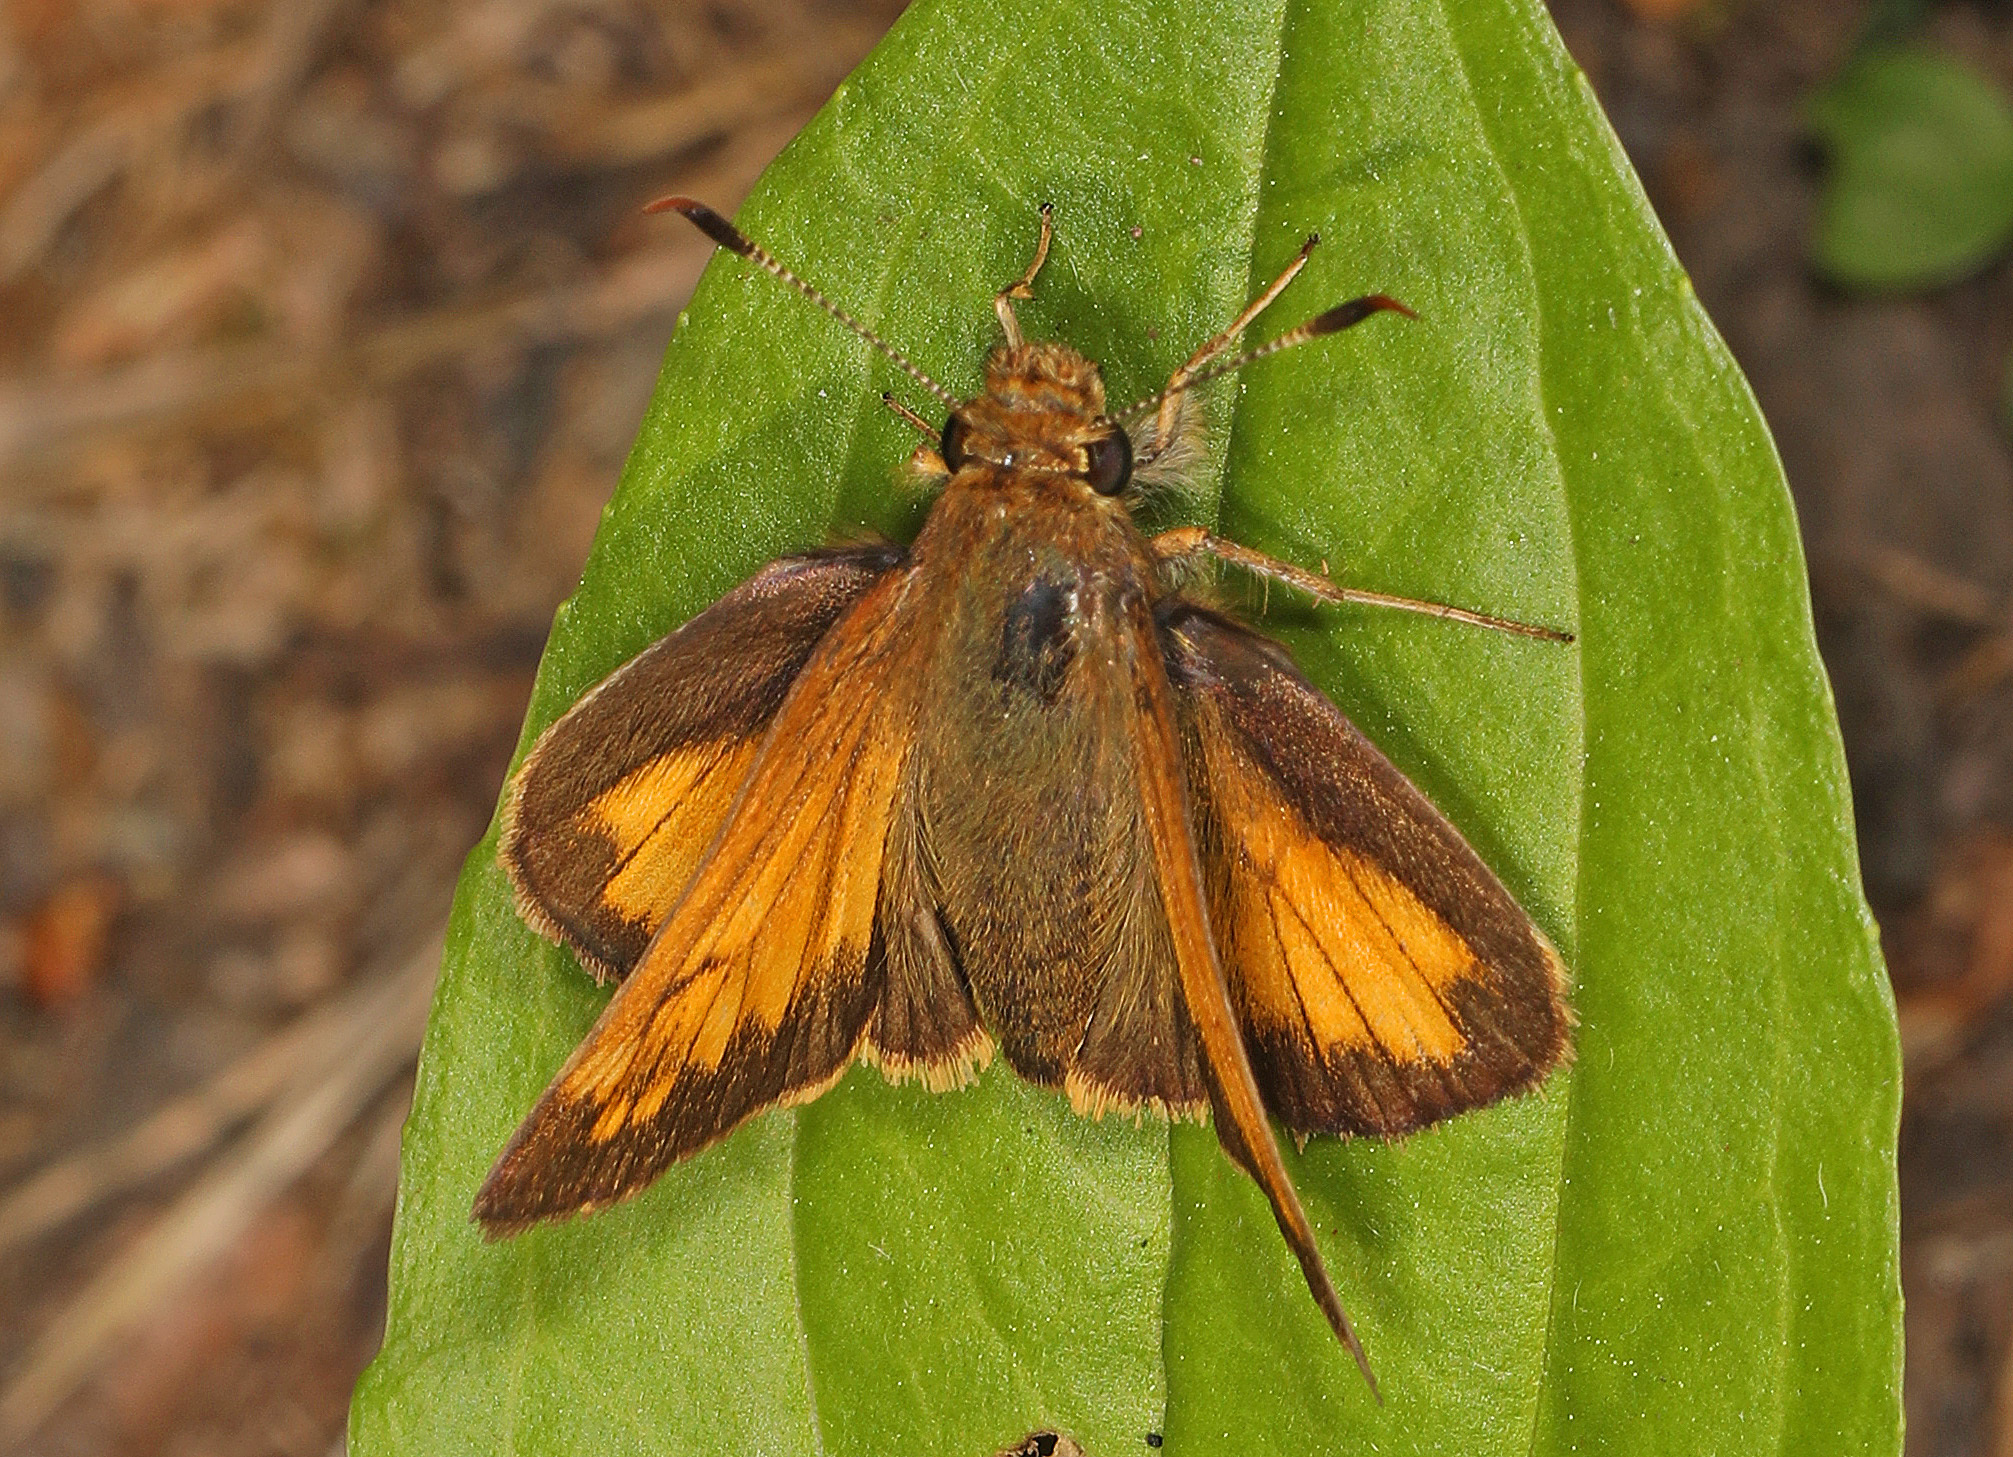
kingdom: Animalia
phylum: Arthropoda
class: Insecta
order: Lepidoptera
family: Hesperiidae
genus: Lon
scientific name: Lon hobomok
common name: Hobomok skipper
